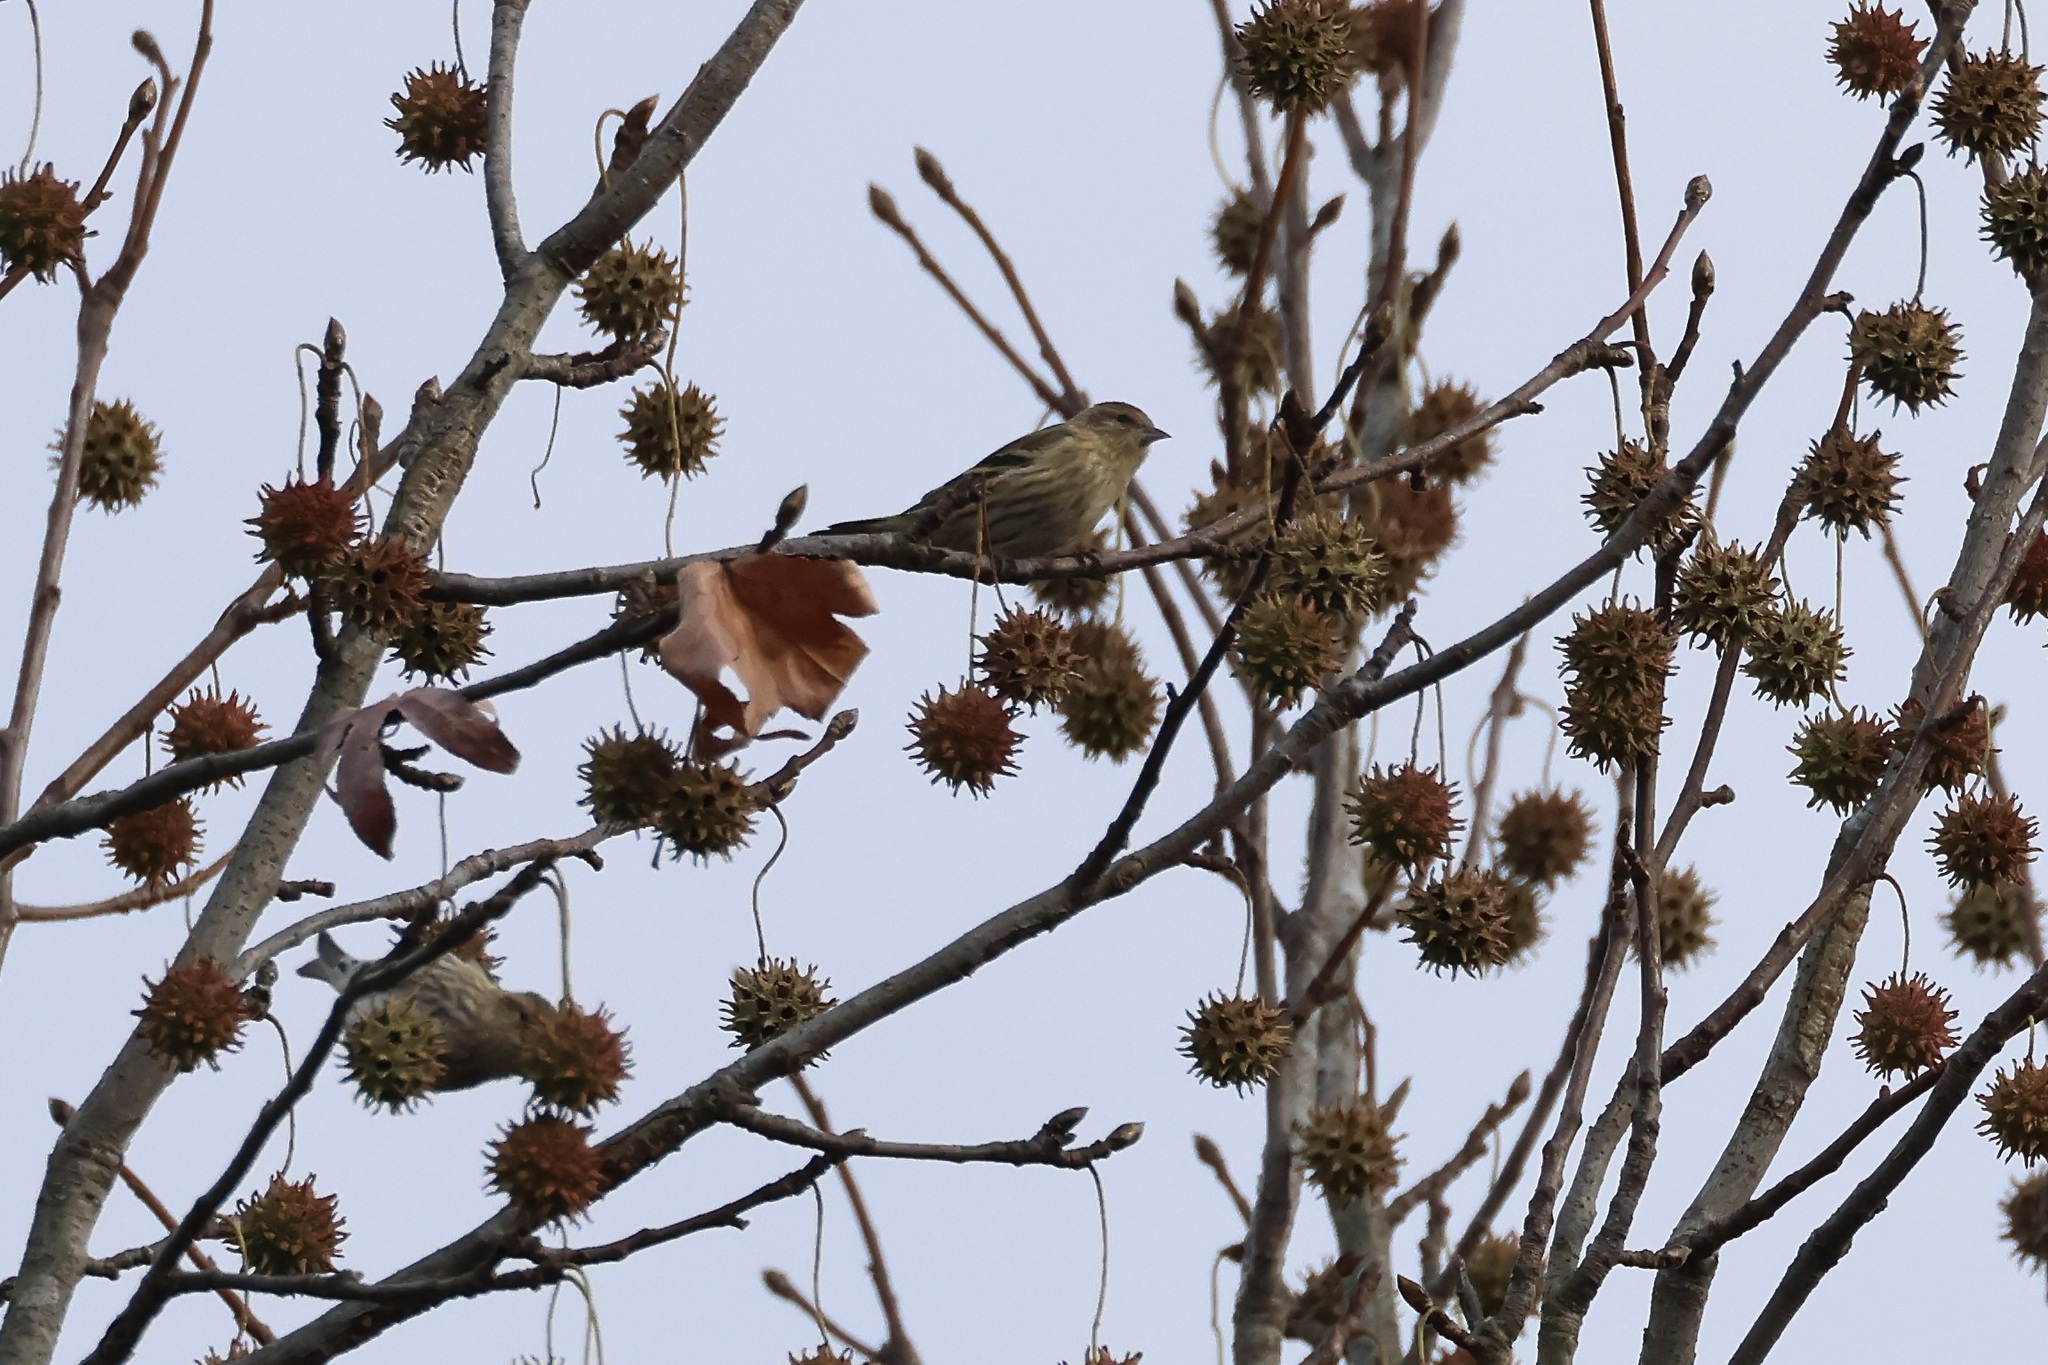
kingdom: Animalia
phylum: Chordata
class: Aves
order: Passeriformes
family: Fringillidae
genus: Spinus
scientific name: Spinus pinus
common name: Pine siskin
